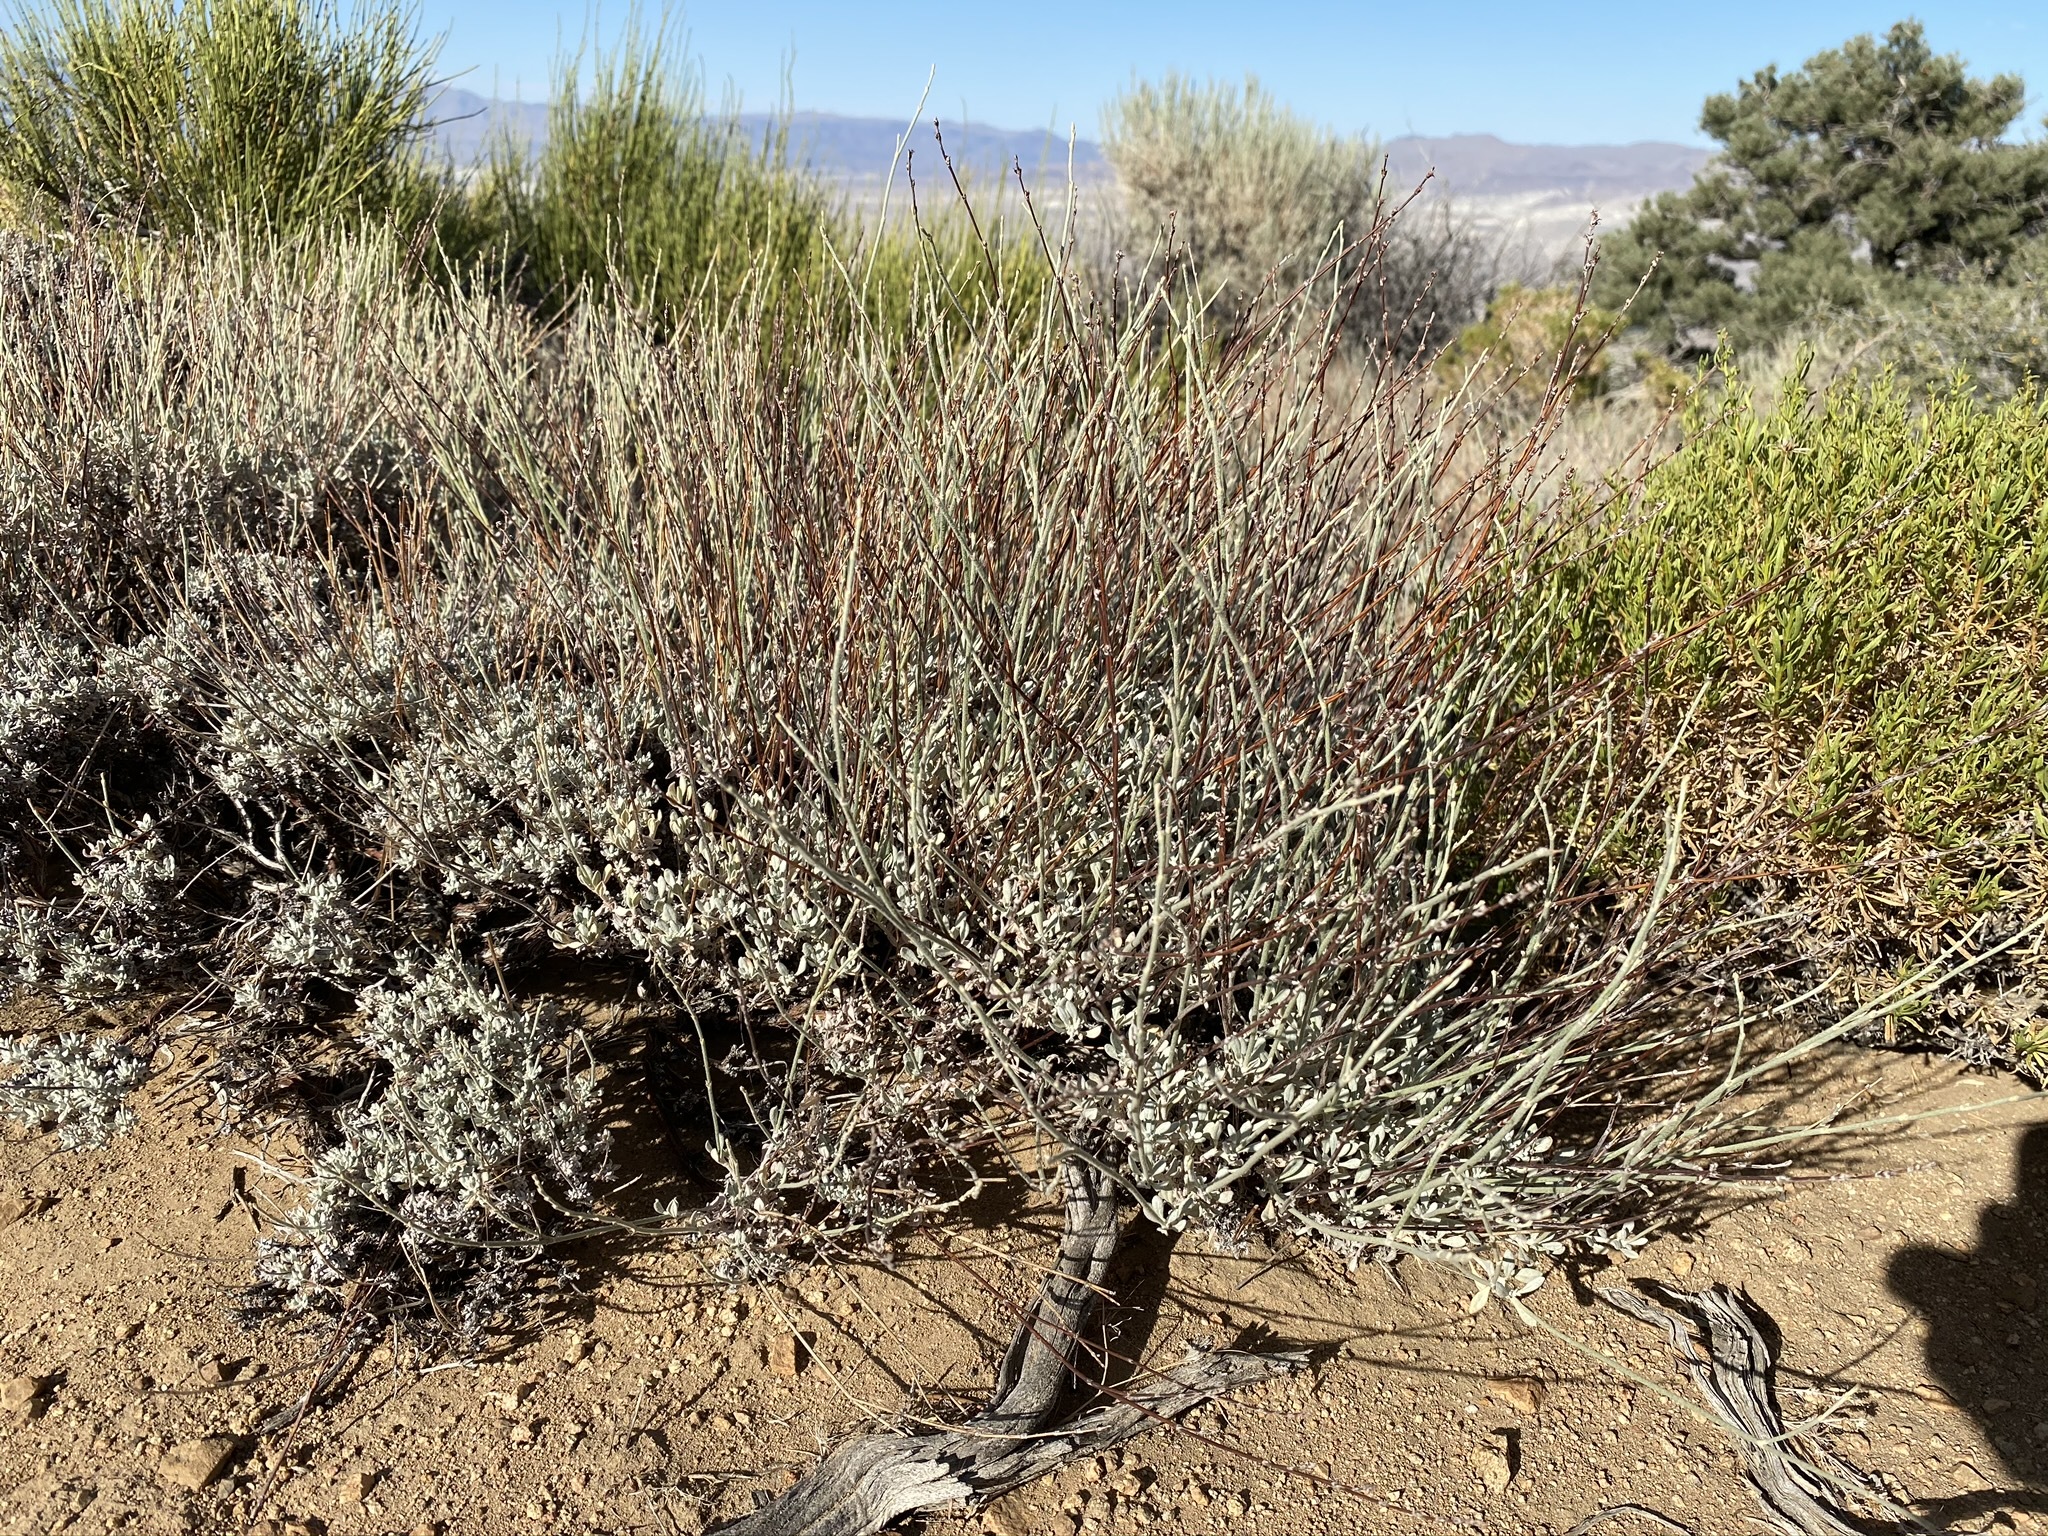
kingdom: Plantae
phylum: Tracheophyta
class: Magnoliopsida
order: Caryophyllales
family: Polygonaceae
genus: Eriogonum
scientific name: Eriogonum wrightii
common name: Bastard-sage
